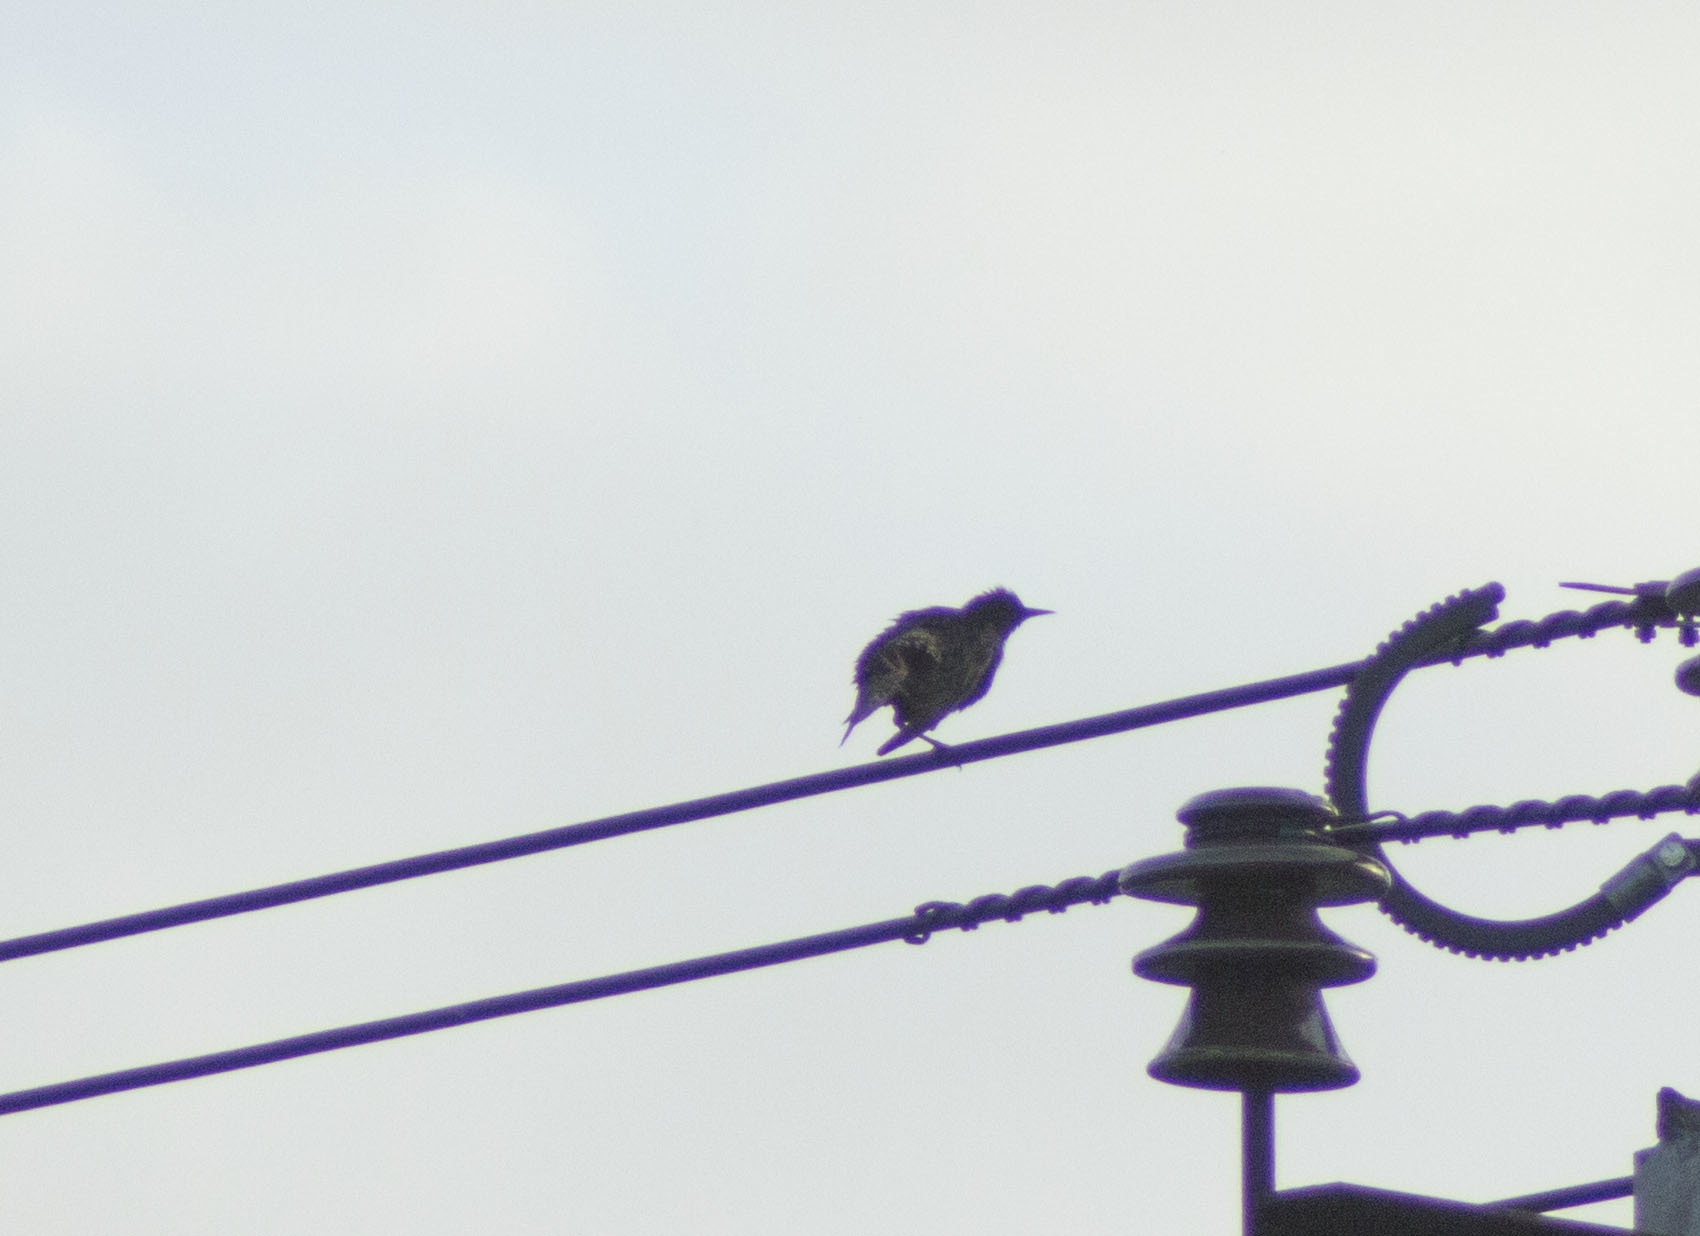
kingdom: Animalia
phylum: Chordata
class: Aves
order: Passeriformes
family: Sturnidae
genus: Sturnus
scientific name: Sturnus vulgaris
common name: Common starling
